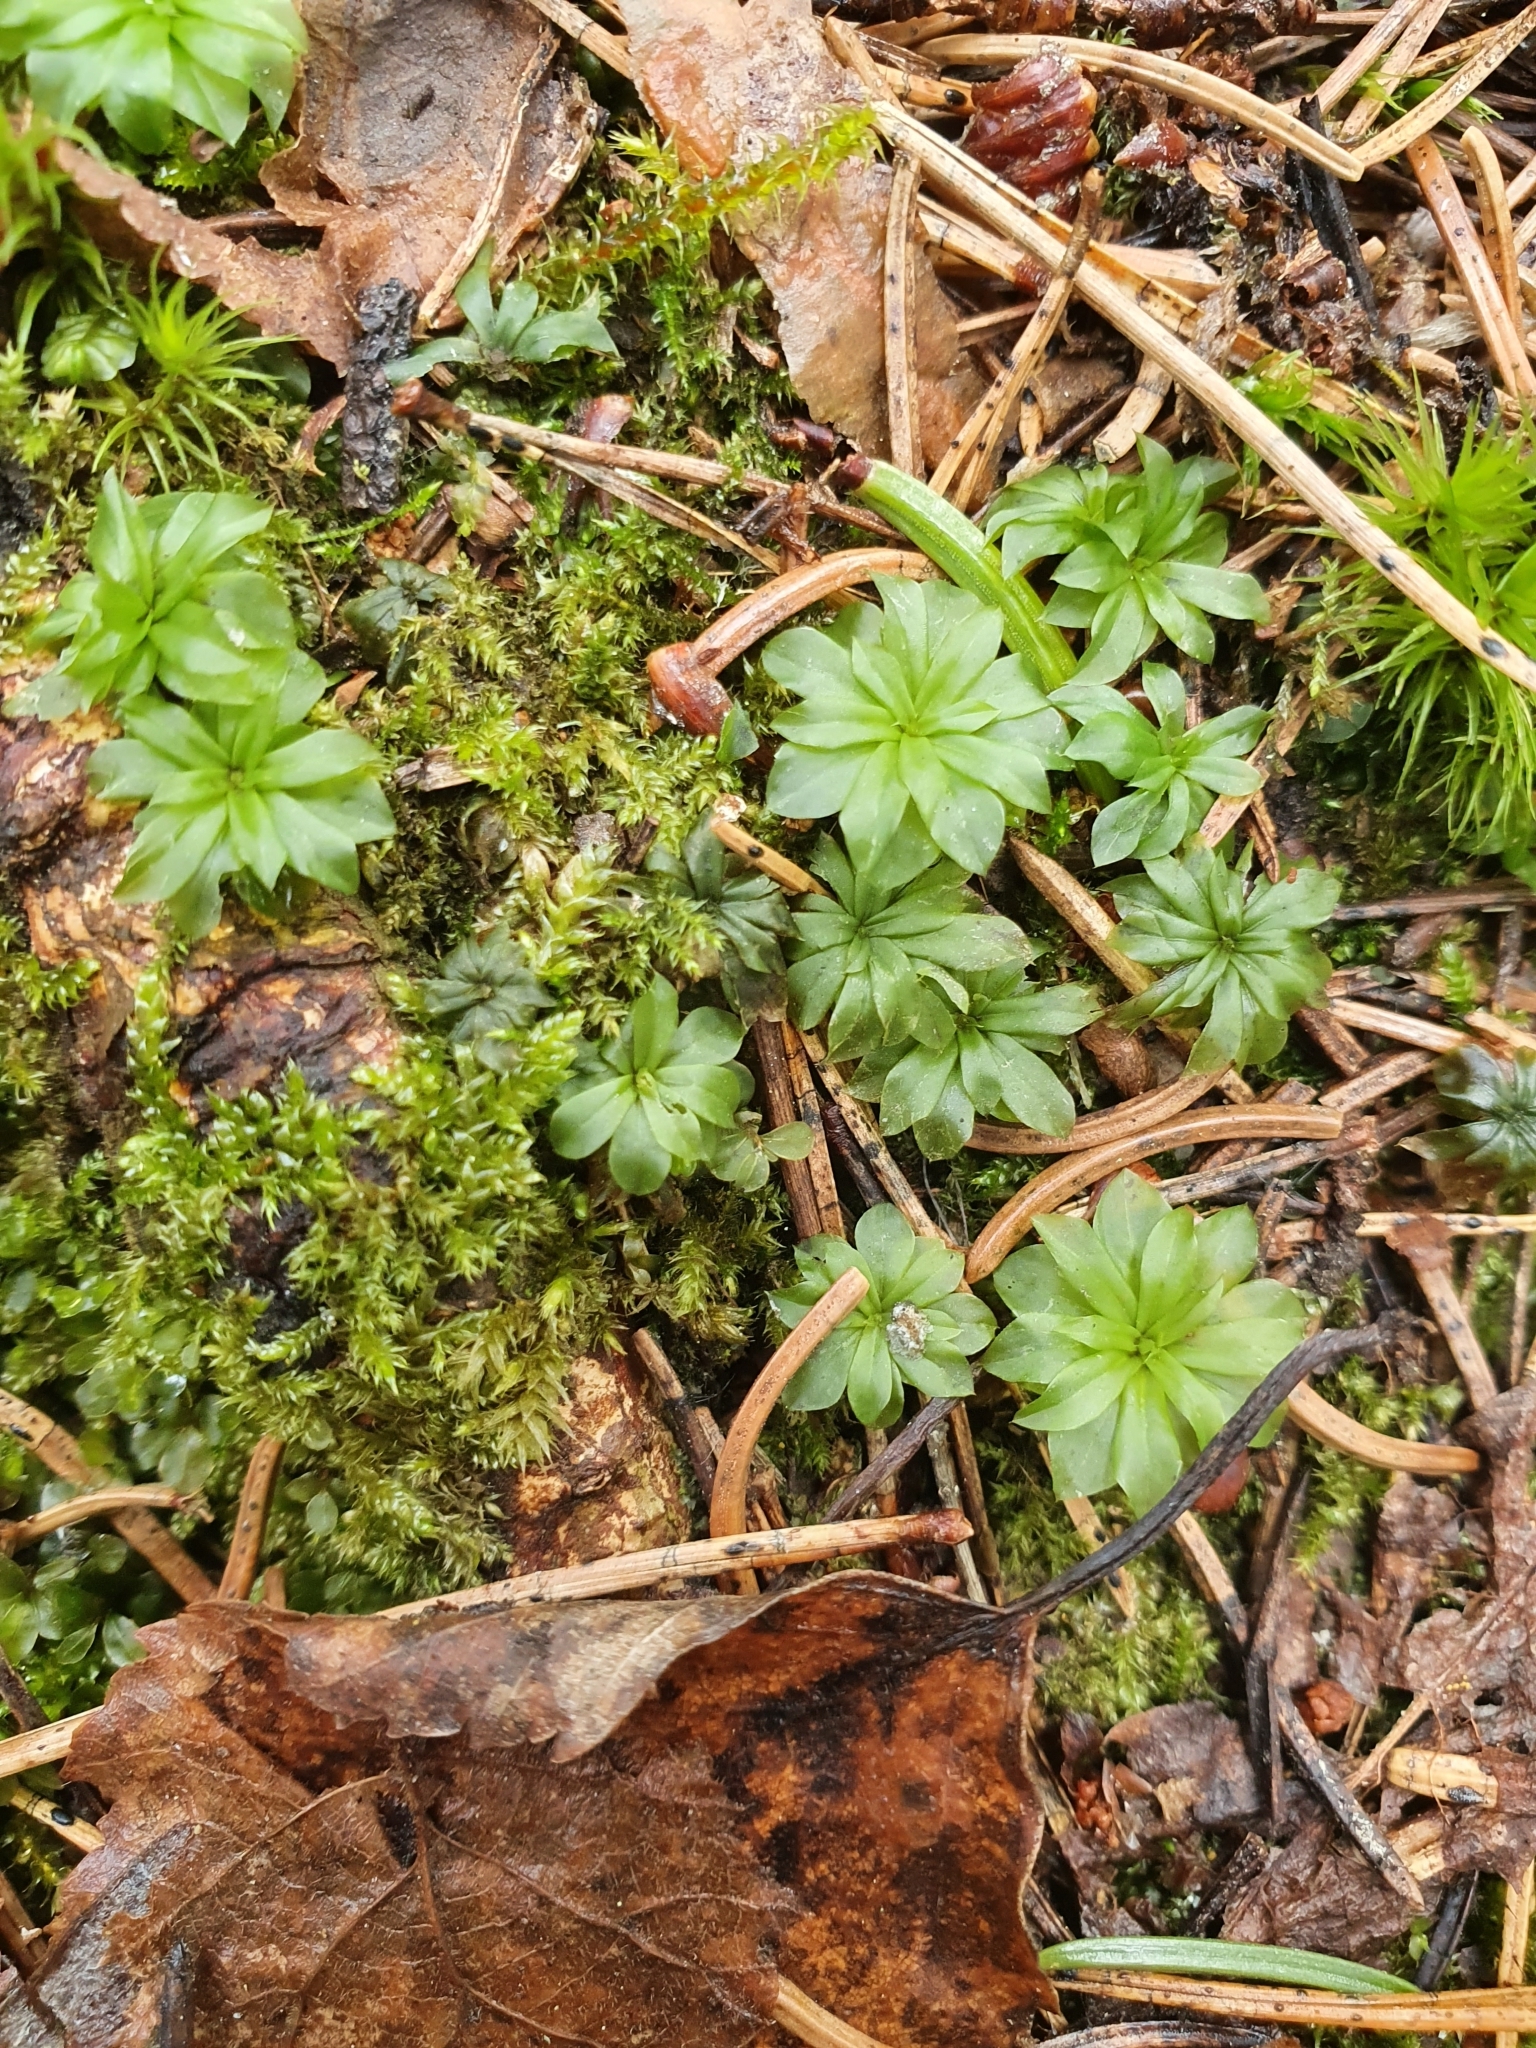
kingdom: Plantae
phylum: Bryophyta
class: Bryopsida
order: Bryales
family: Bryaceae
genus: Rhodobryum
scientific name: Rhodobryum roseum
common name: Rose-moss
